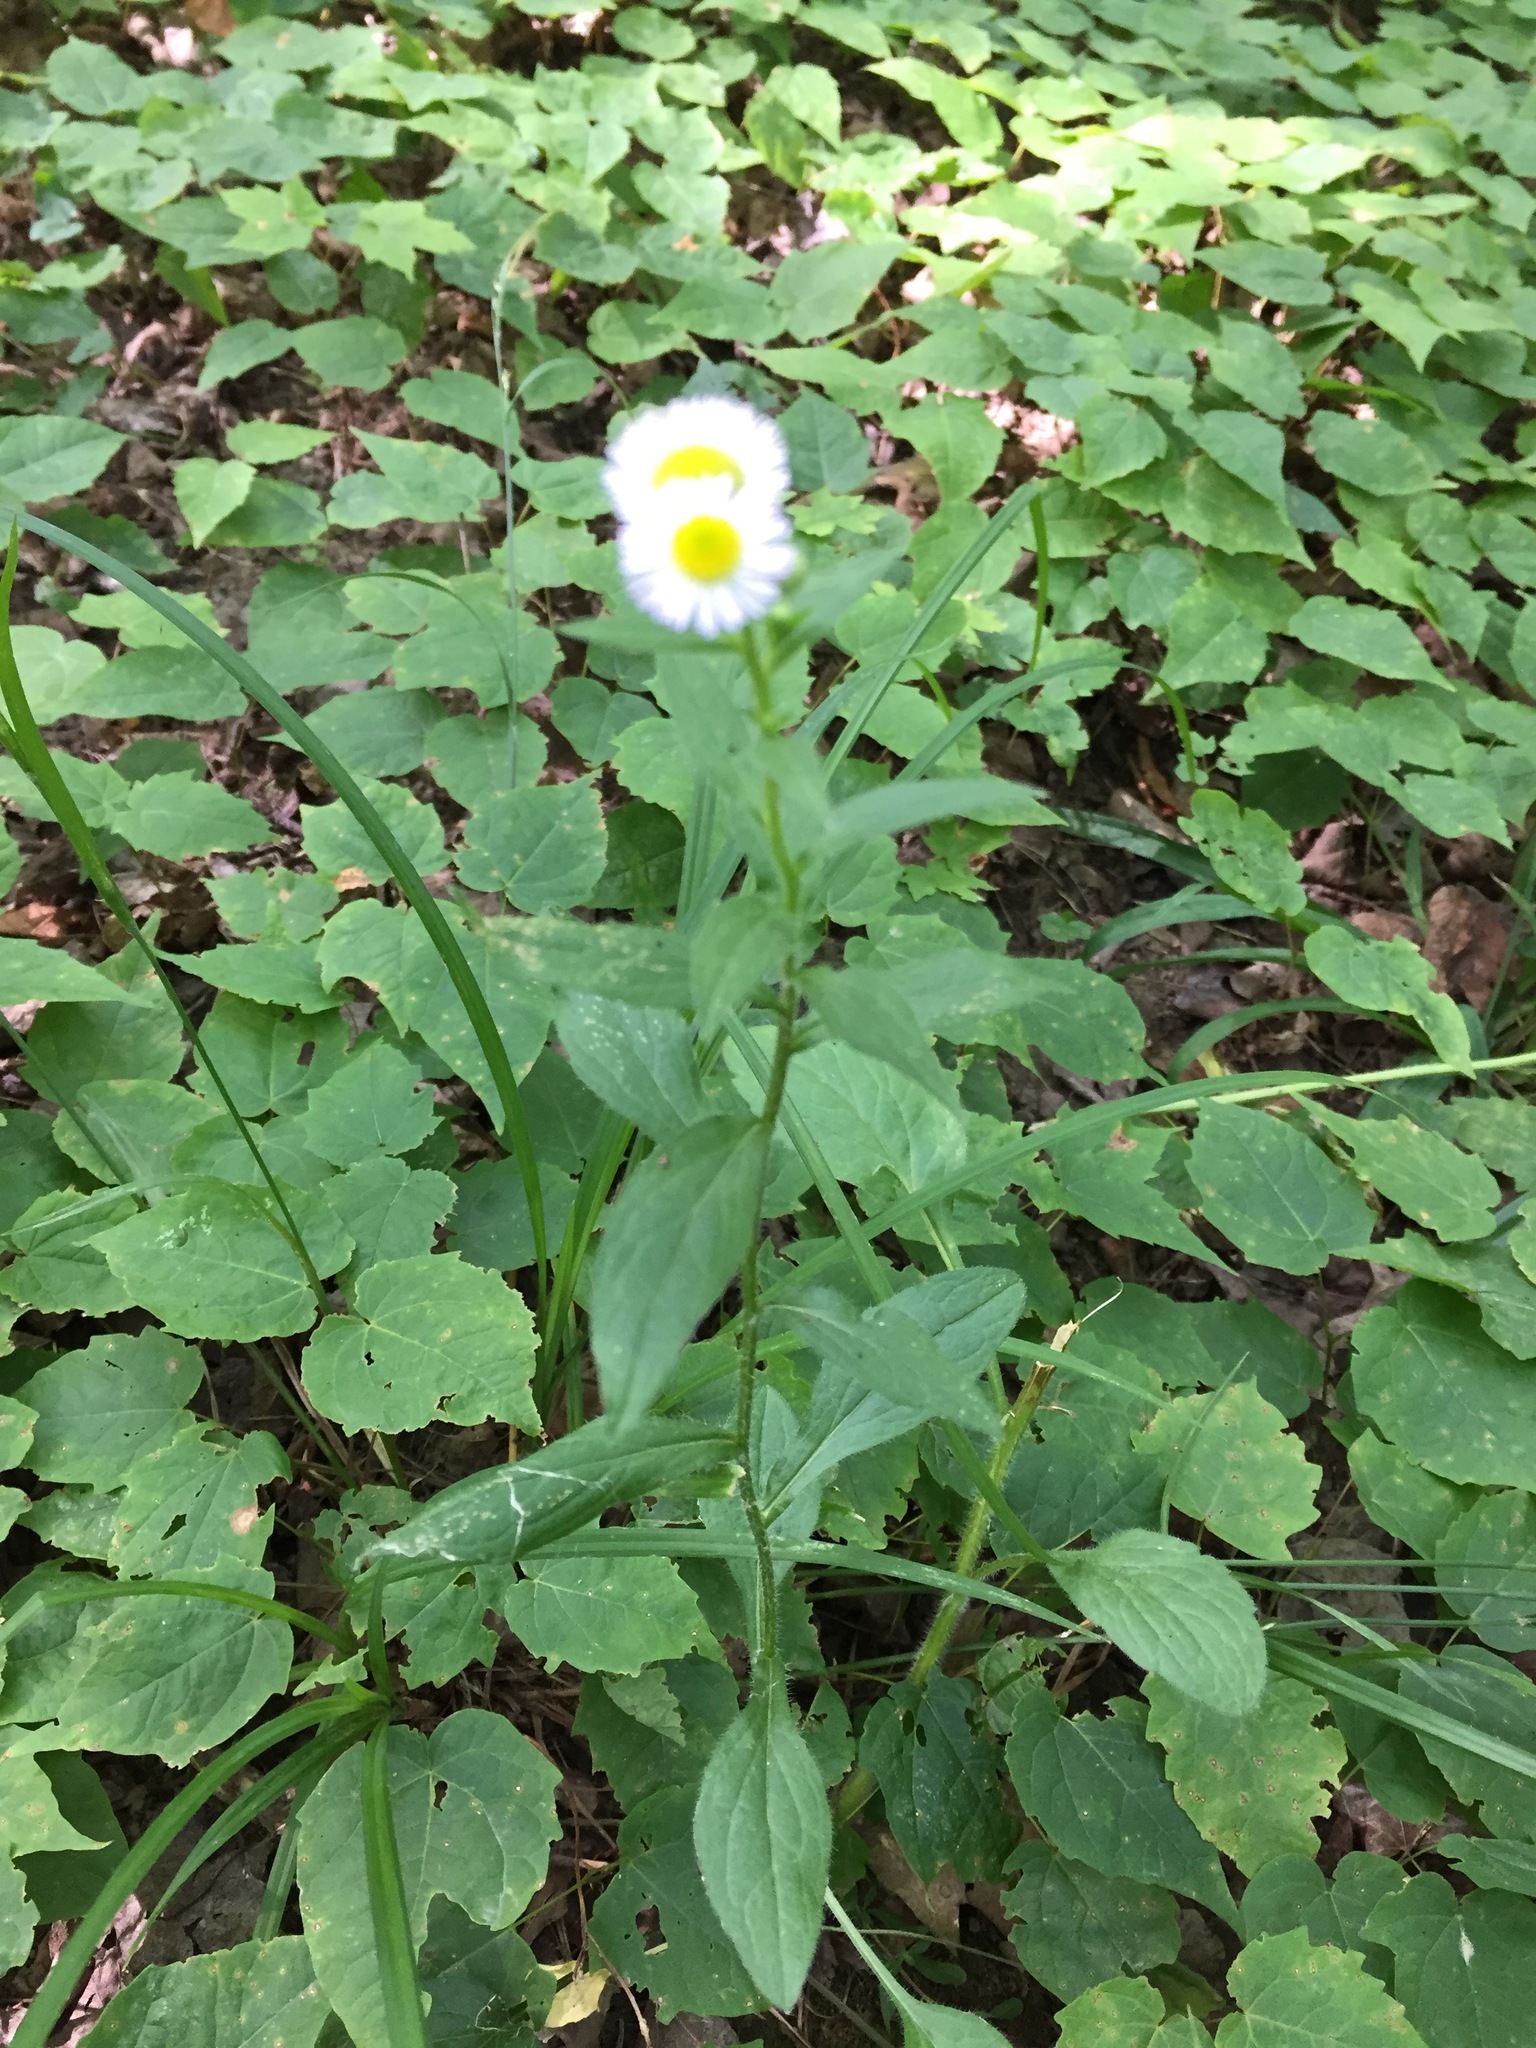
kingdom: Plantae
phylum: Tracheophyta
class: Magnoliopsida
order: Asterales
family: Asteraceae
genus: Erigeron
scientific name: Erigeron annuus
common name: Tall fleabane
